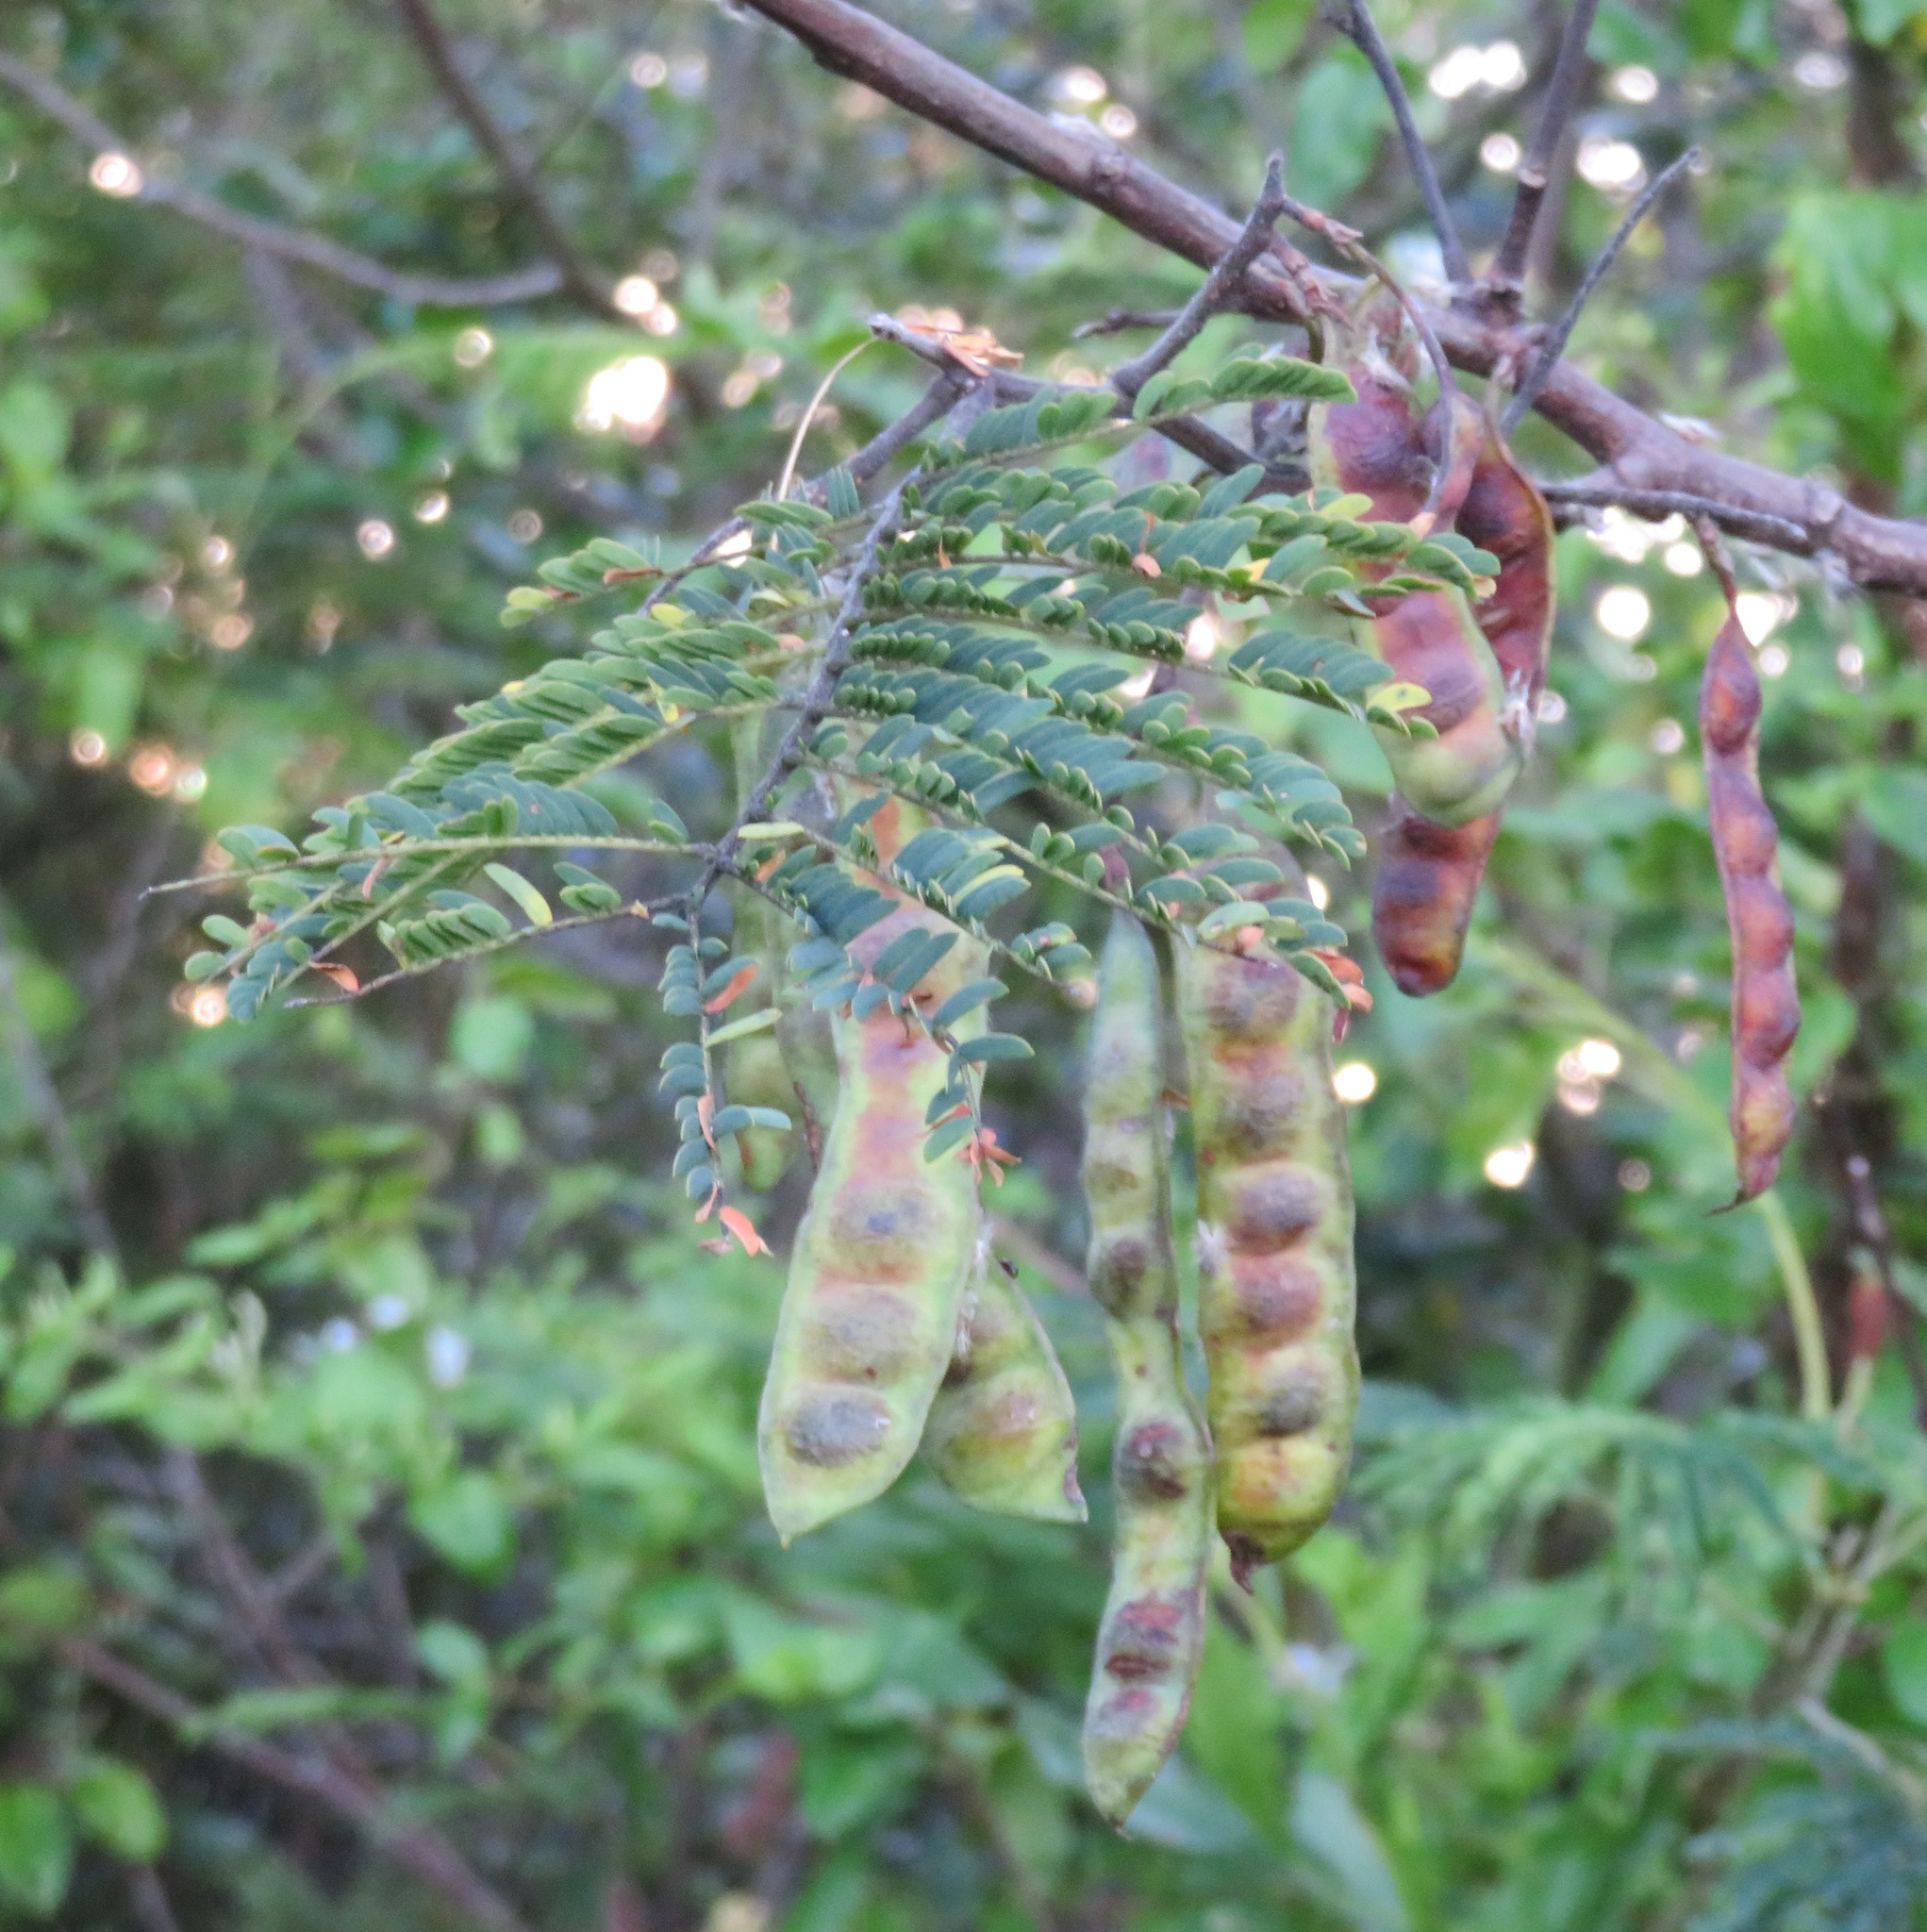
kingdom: Plantae
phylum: Tracheophyta
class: Magnoliopsida
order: Fabales
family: Fabaceae
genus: Paraserianthes
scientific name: Paraserianthes lophantha
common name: Plume albizia
